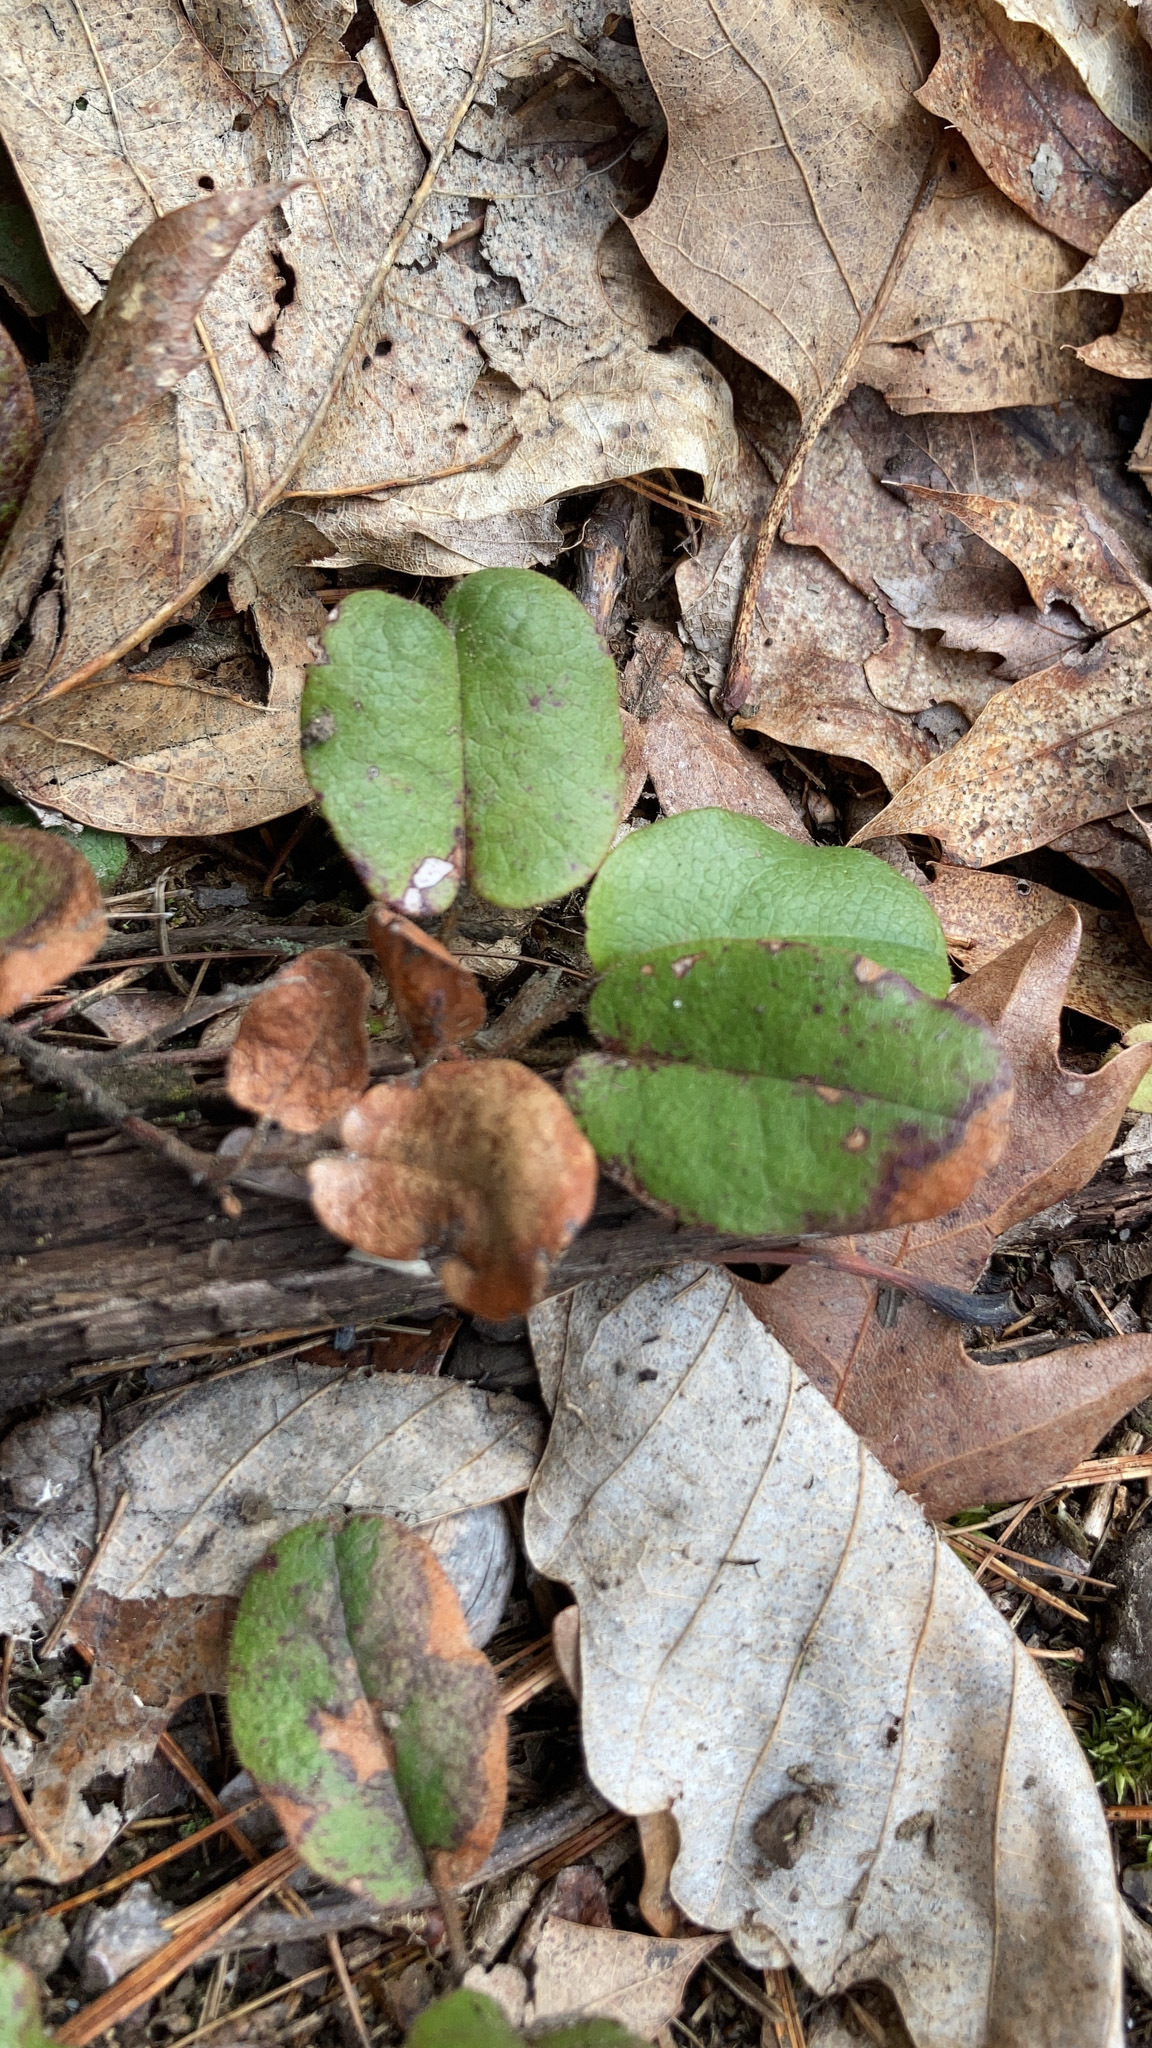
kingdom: Plantae
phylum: Tracheophyta
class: Magnoliopsida
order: Ericales
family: Ericaceae
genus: Epigaea
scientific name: Epigaea repens
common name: Gravelroot
